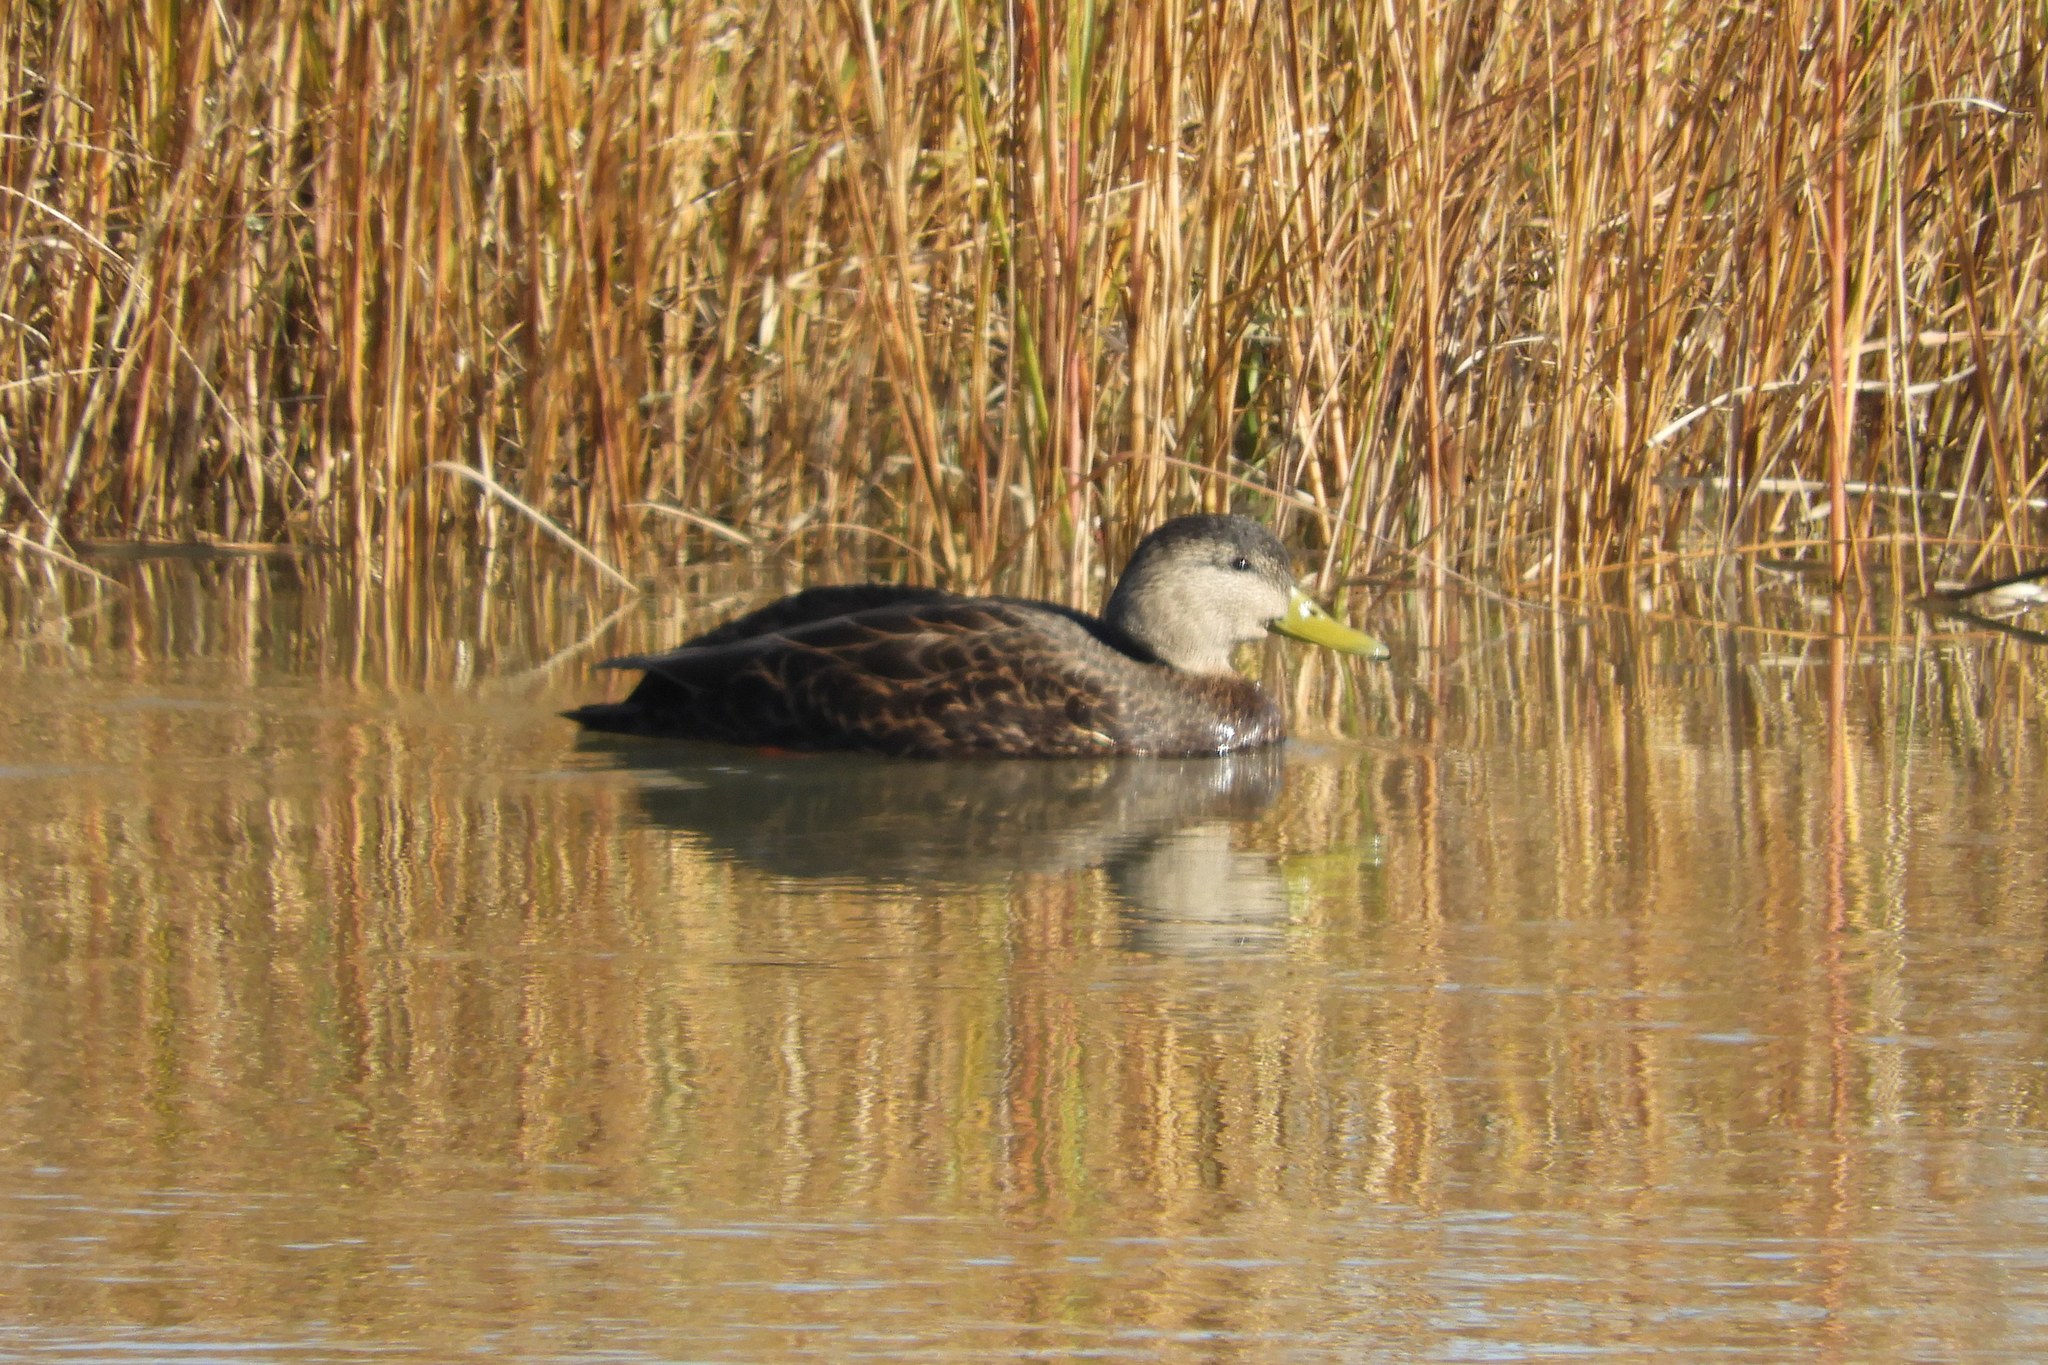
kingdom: Animalia
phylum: Chordata
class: Aves
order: Anseriformes
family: Anatidae
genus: Anas
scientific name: Anas rubripes
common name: American black duck
